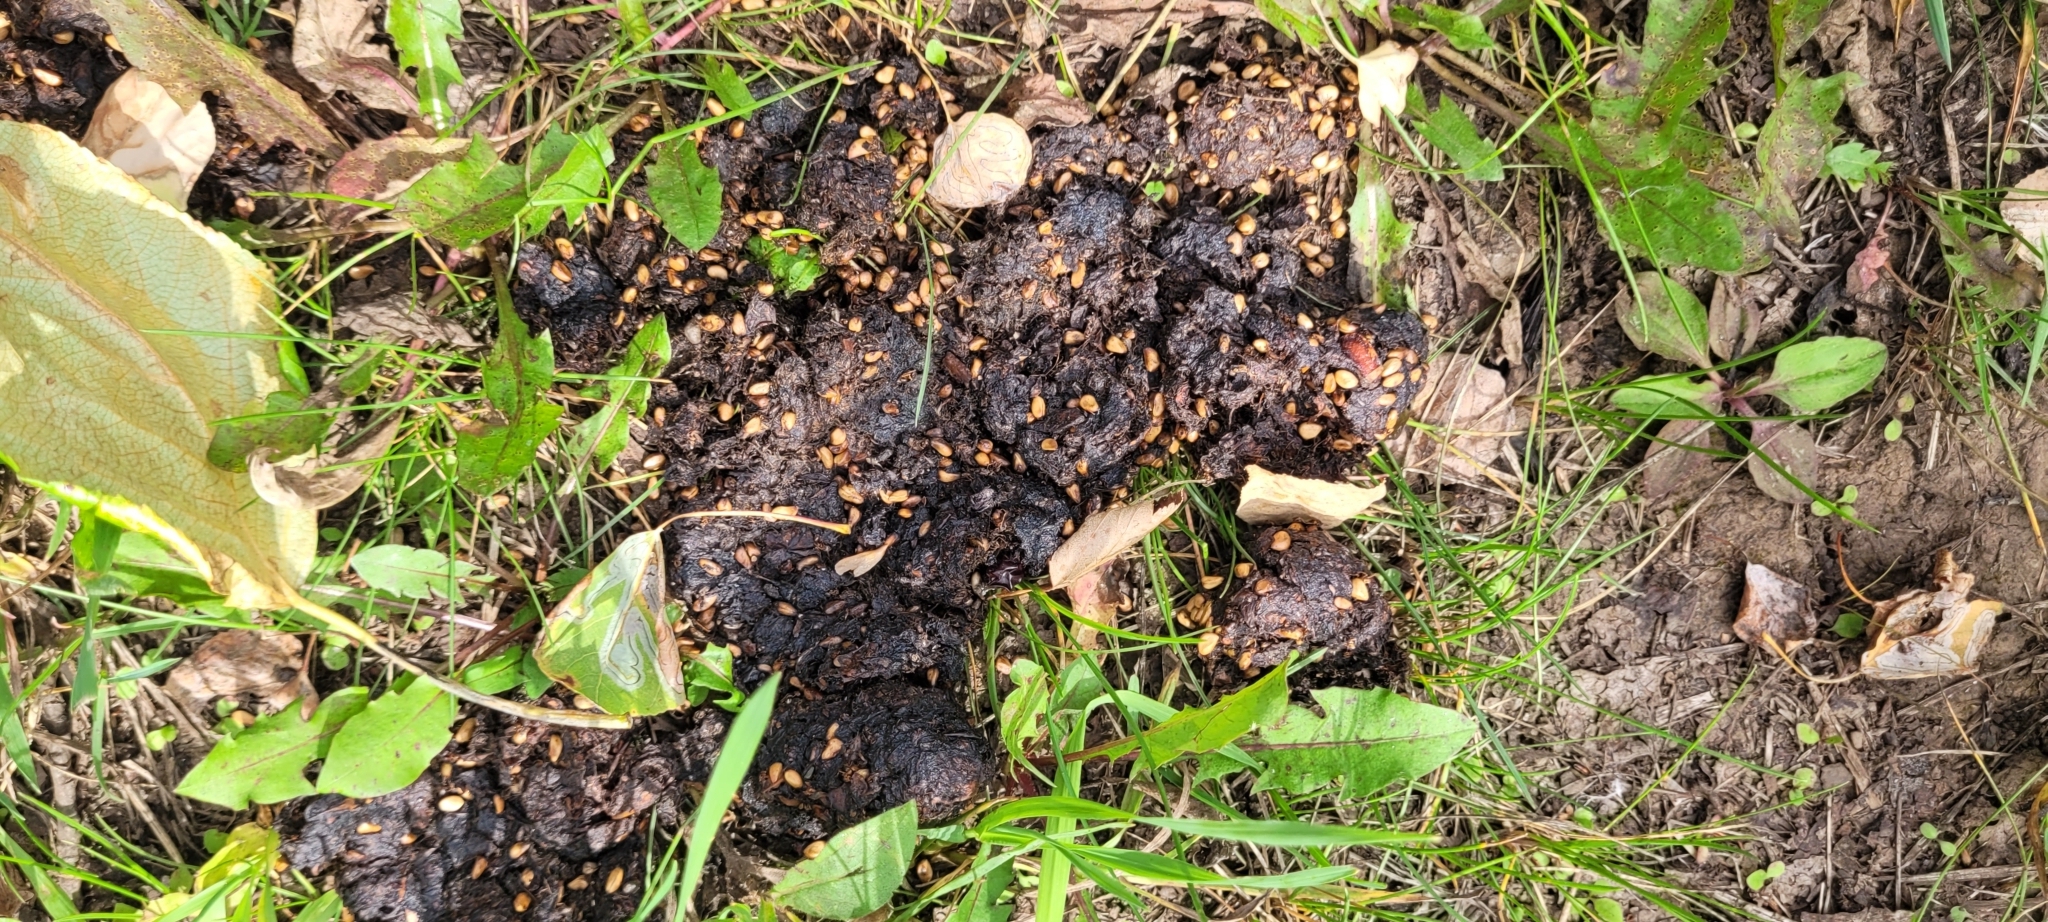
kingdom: Animalia
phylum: Chordata
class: Mammalia
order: Carnivora
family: Ursidae
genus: Ursus
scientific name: Ursus americanus
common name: American black bear
